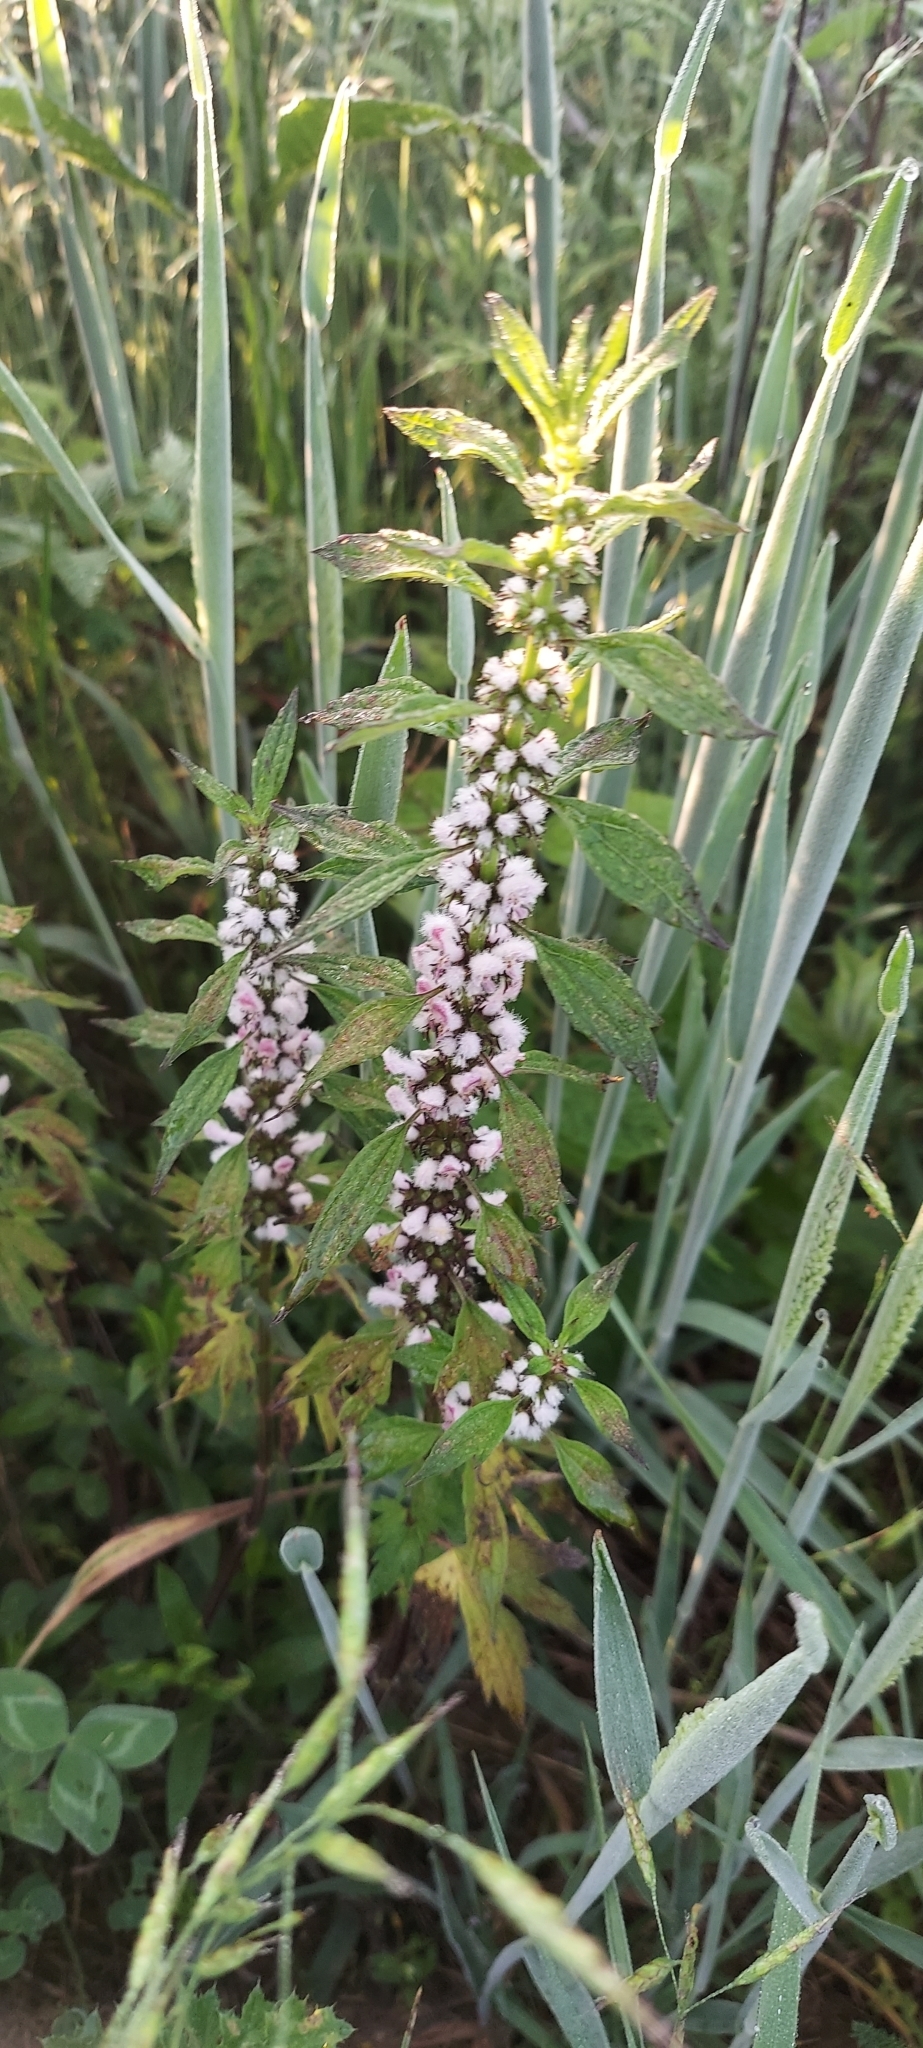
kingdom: Plantae
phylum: Tracheophyta
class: Magnoliopsida
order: Lamiales
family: Lamiaceae
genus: Leonurus
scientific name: Leonurus cardiaca
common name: Motherwort
